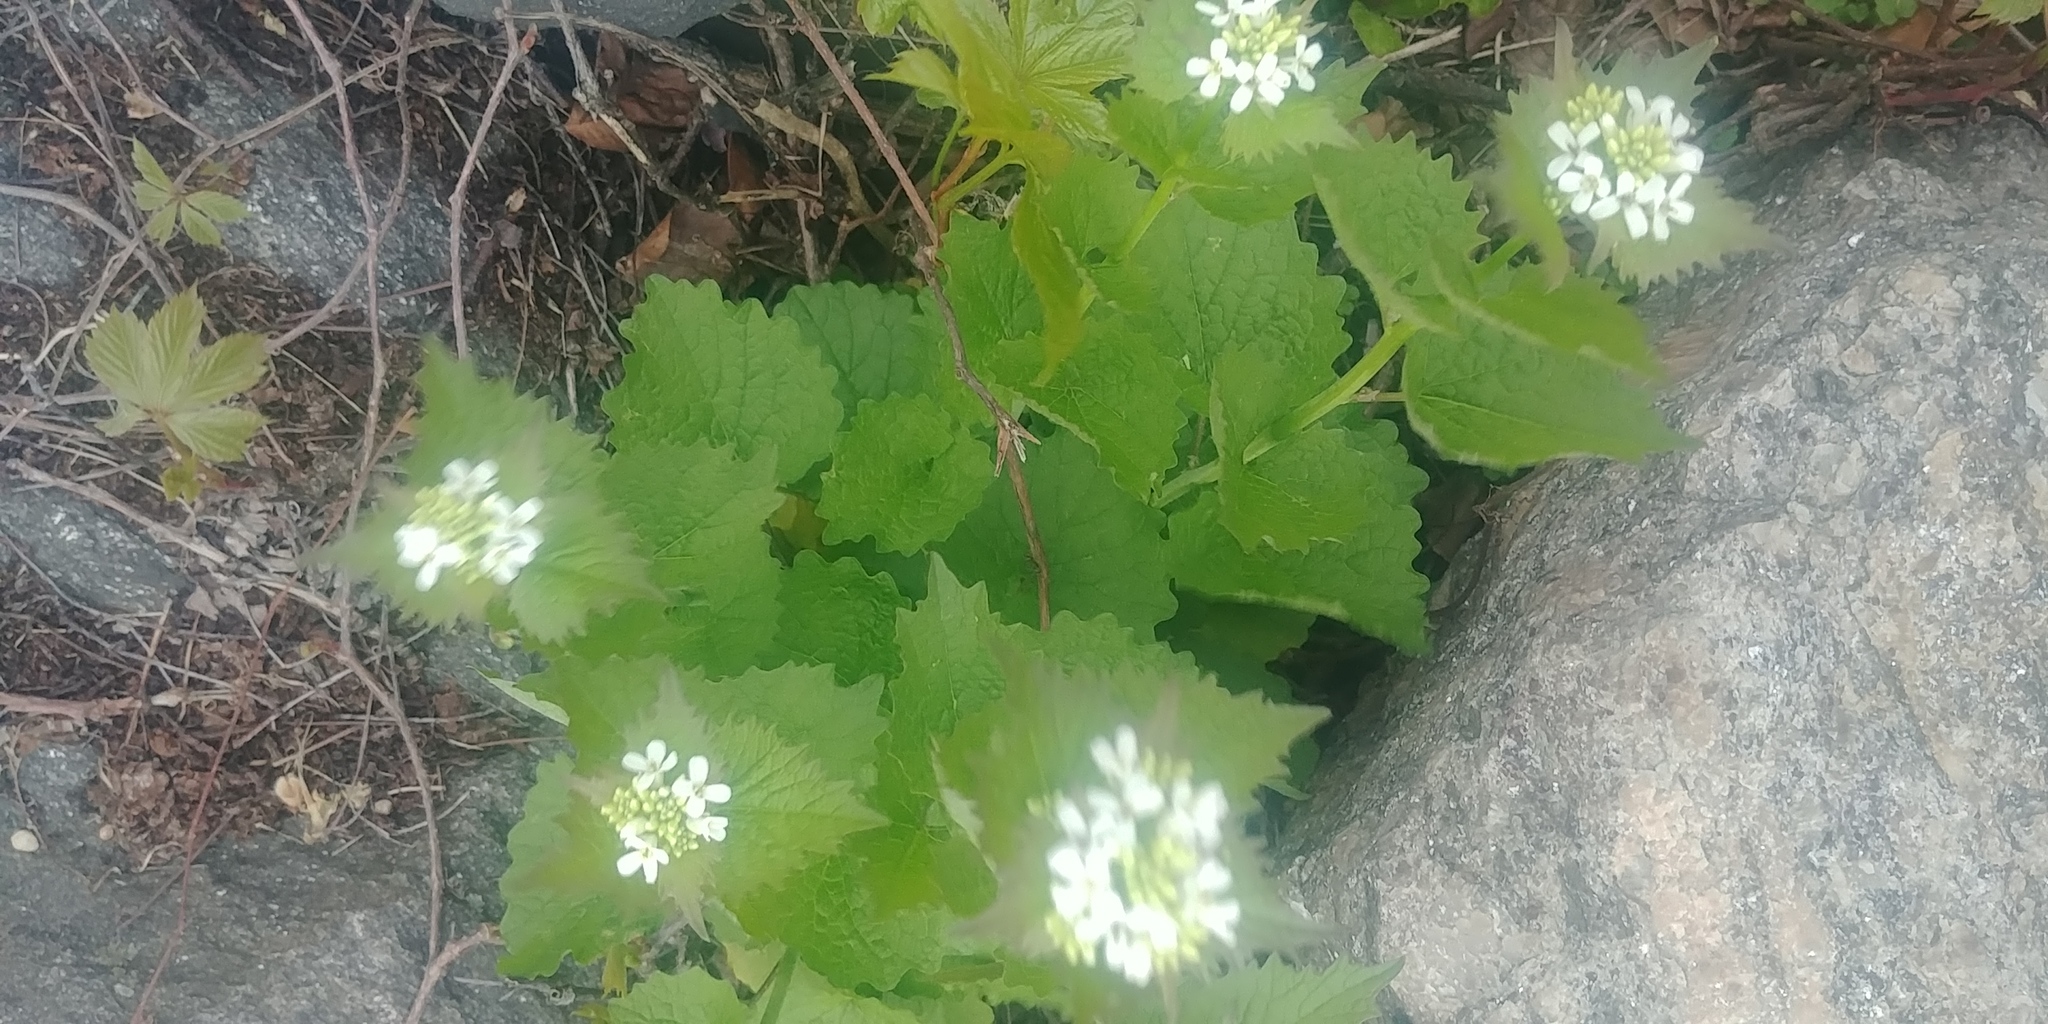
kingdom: Plantae
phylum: Tracheophyta
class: Magnoliopsida
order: Brassicales
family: Brassicaceae
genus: Alliaria
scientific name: Alliaria petiolata
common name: Garlic mustard
